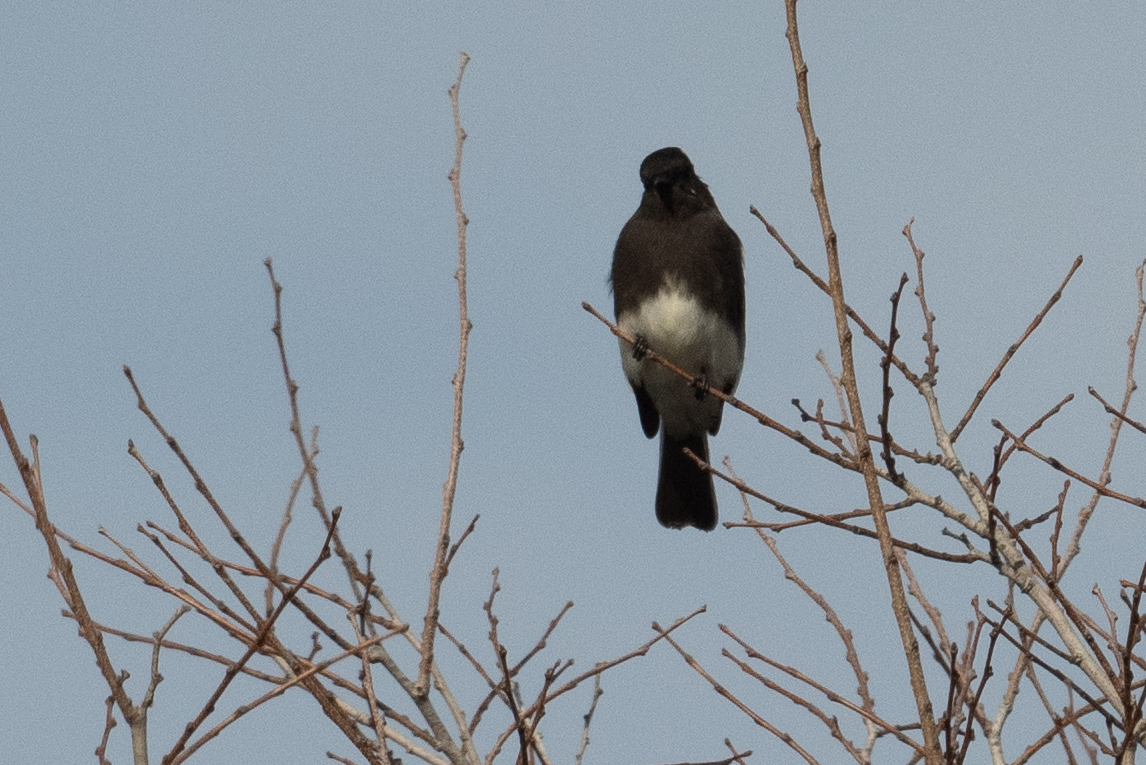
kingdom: Animalia
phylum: Chordata
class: Aves
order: Passeriformes
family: Tyrannidae
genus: Sayornis
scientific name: Sayornis nigricans
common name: Black phoebe
